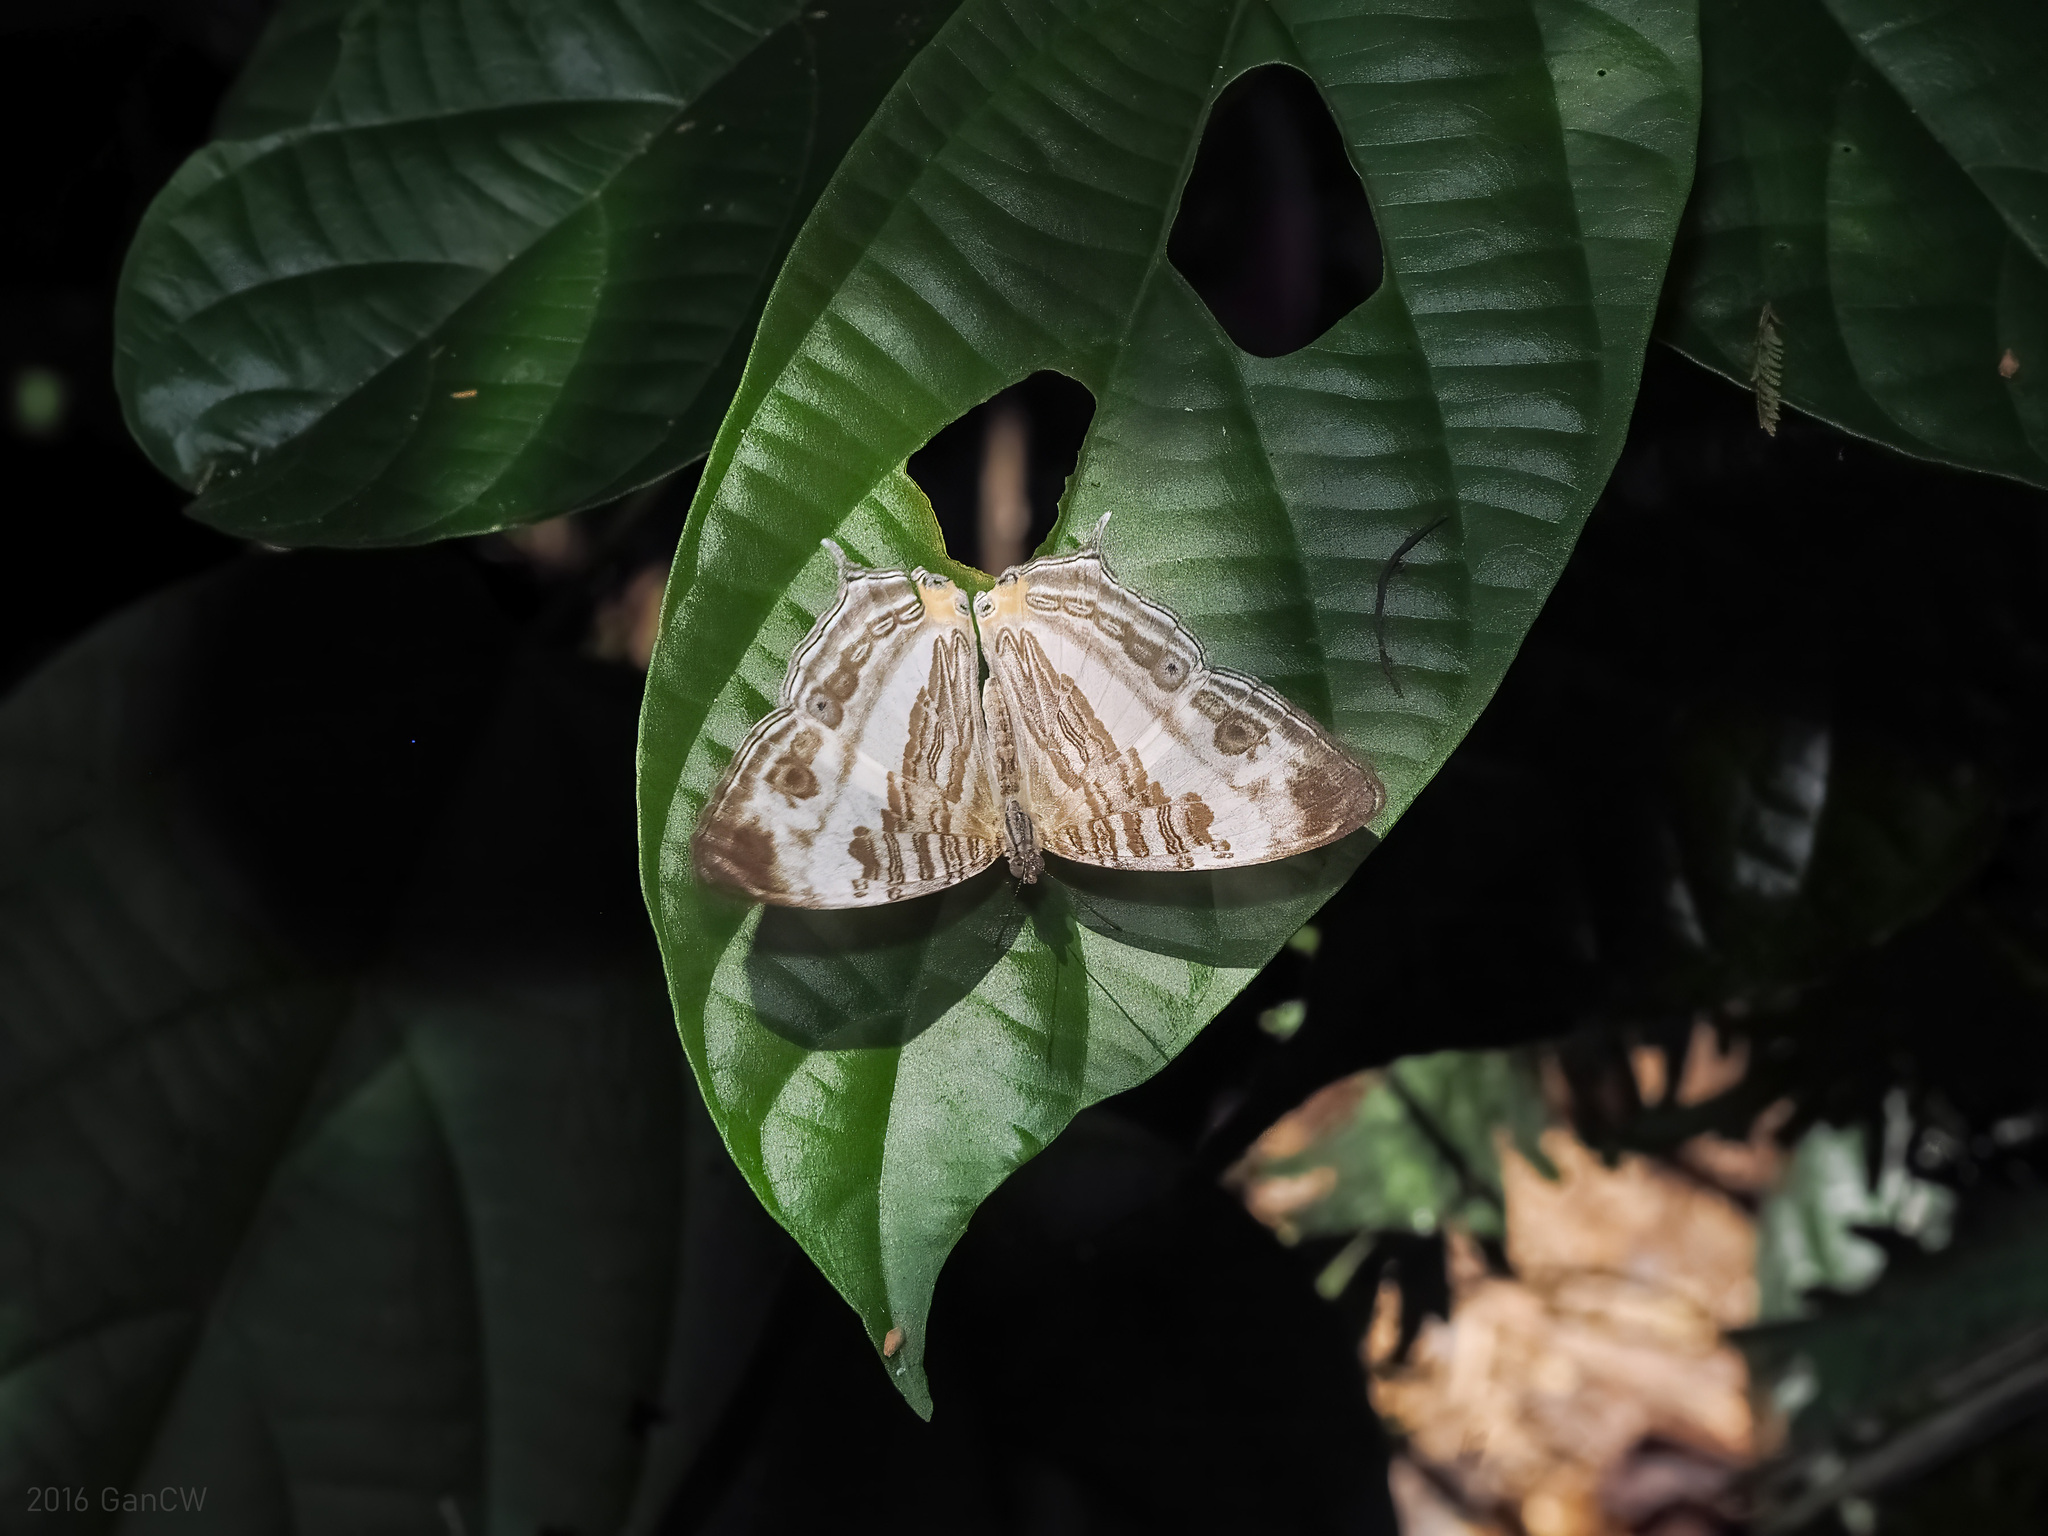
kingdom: Animalia
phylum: Arthropoda
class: Insecta
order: Lepidoptera
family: Nymphalidae
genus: Cyrestis
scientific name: Cyrestis cocles
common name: Marbled map
